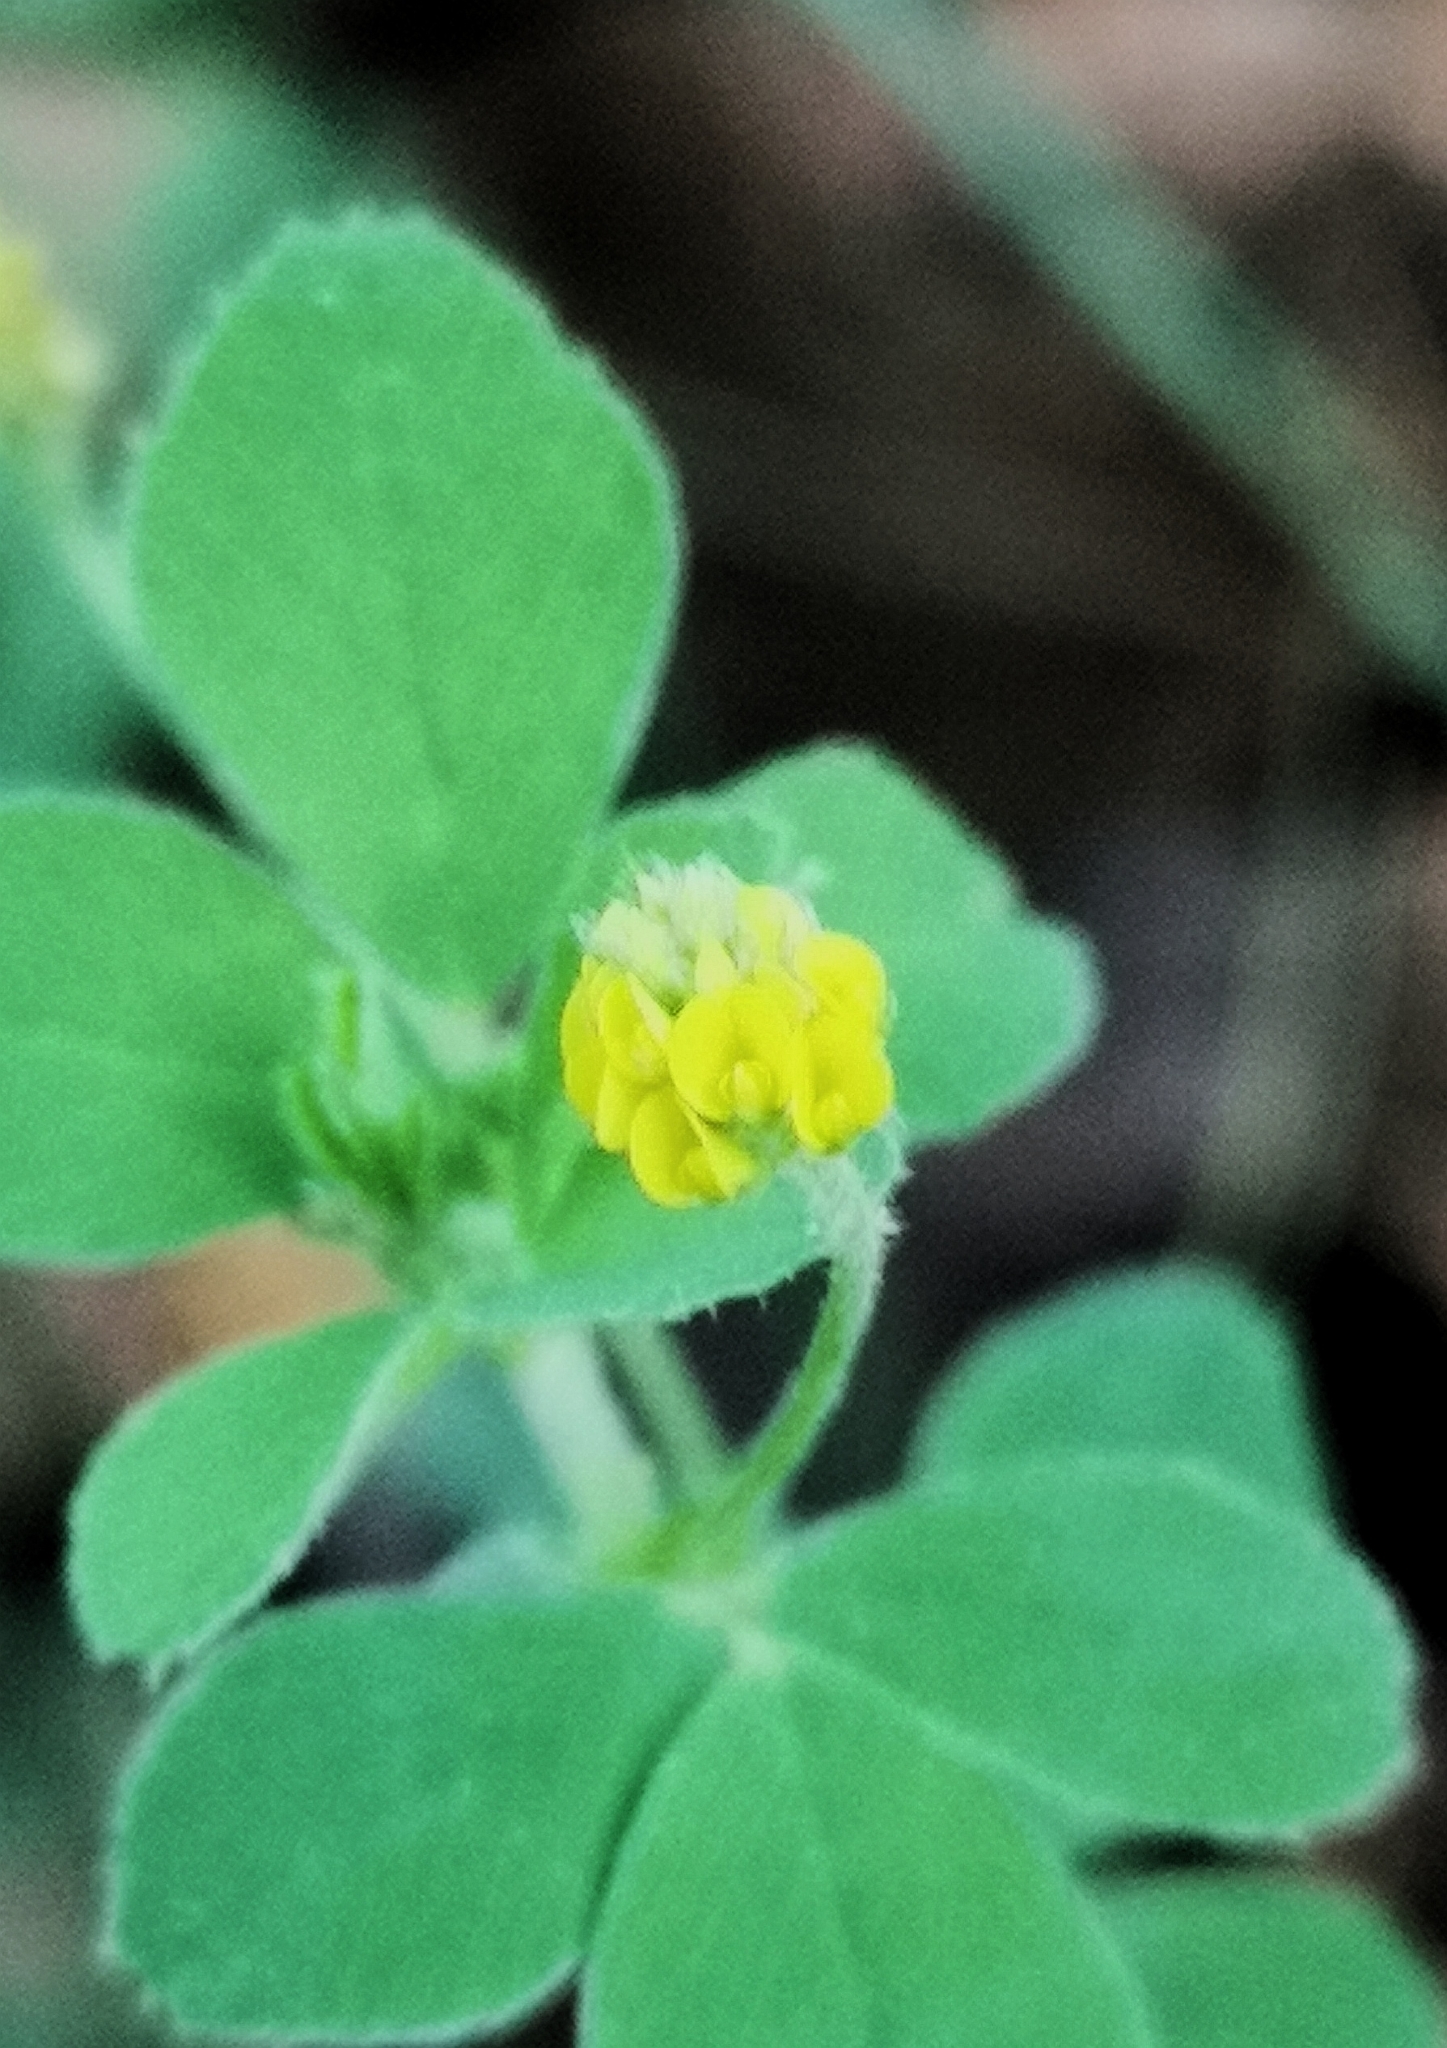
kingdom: Plantae
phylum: Tracheophyta
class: Magnoliopsida
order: Fabales
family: Fabaceae
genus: Medicago
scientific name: Medicago lupulina
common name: Black medick
